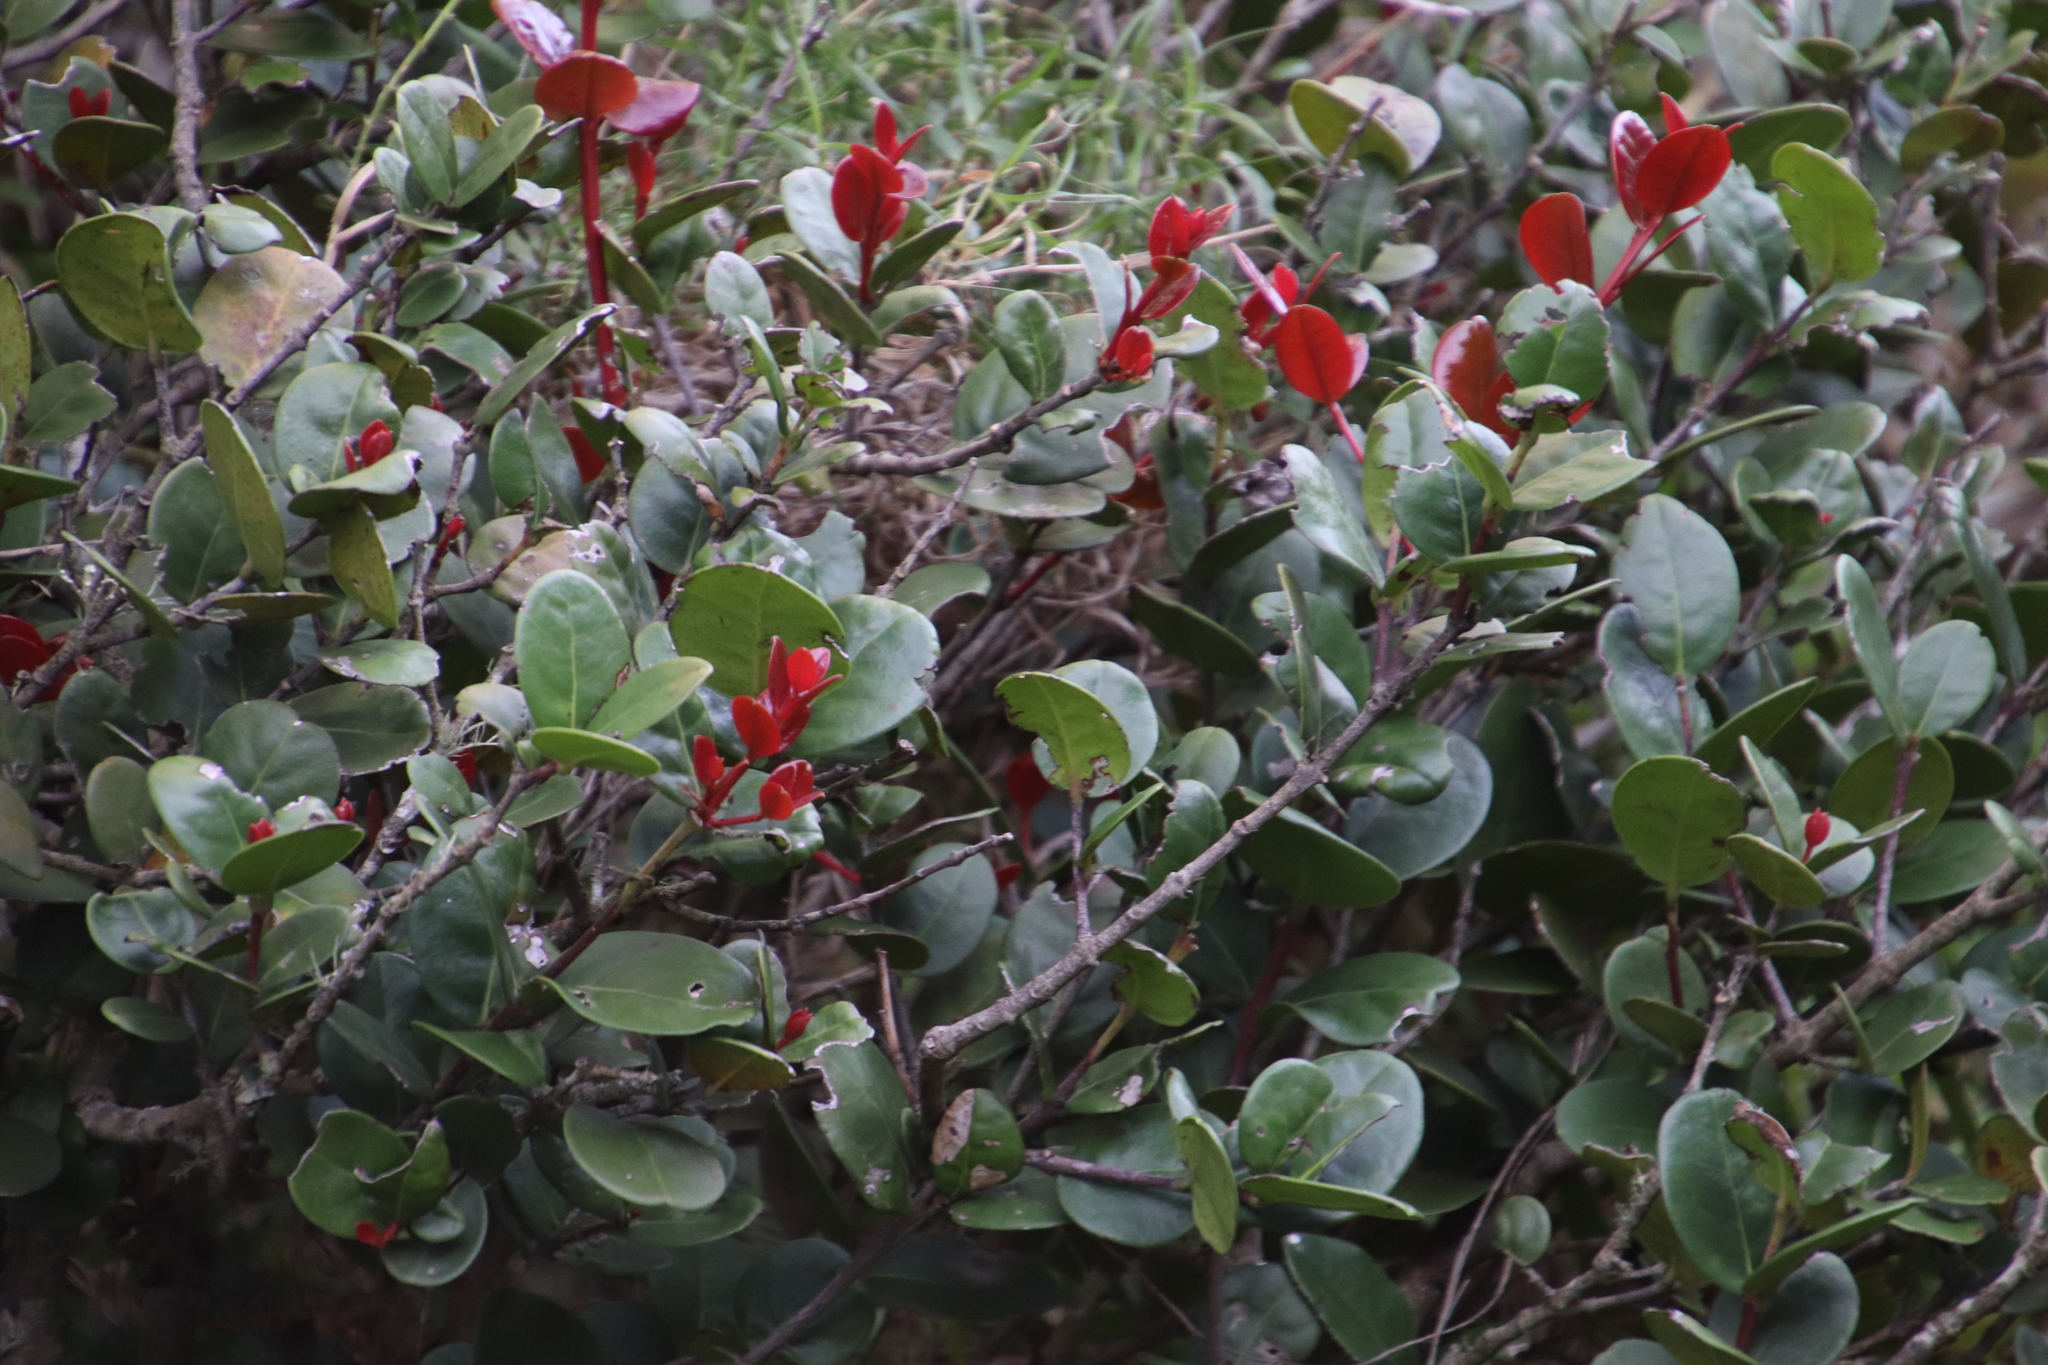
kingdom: Plantae
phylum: Tracheophyta
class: Magnoliopsida
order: Celastrales
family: Celastraceae
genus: Maurocenia
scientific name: Maurocenia frangula
